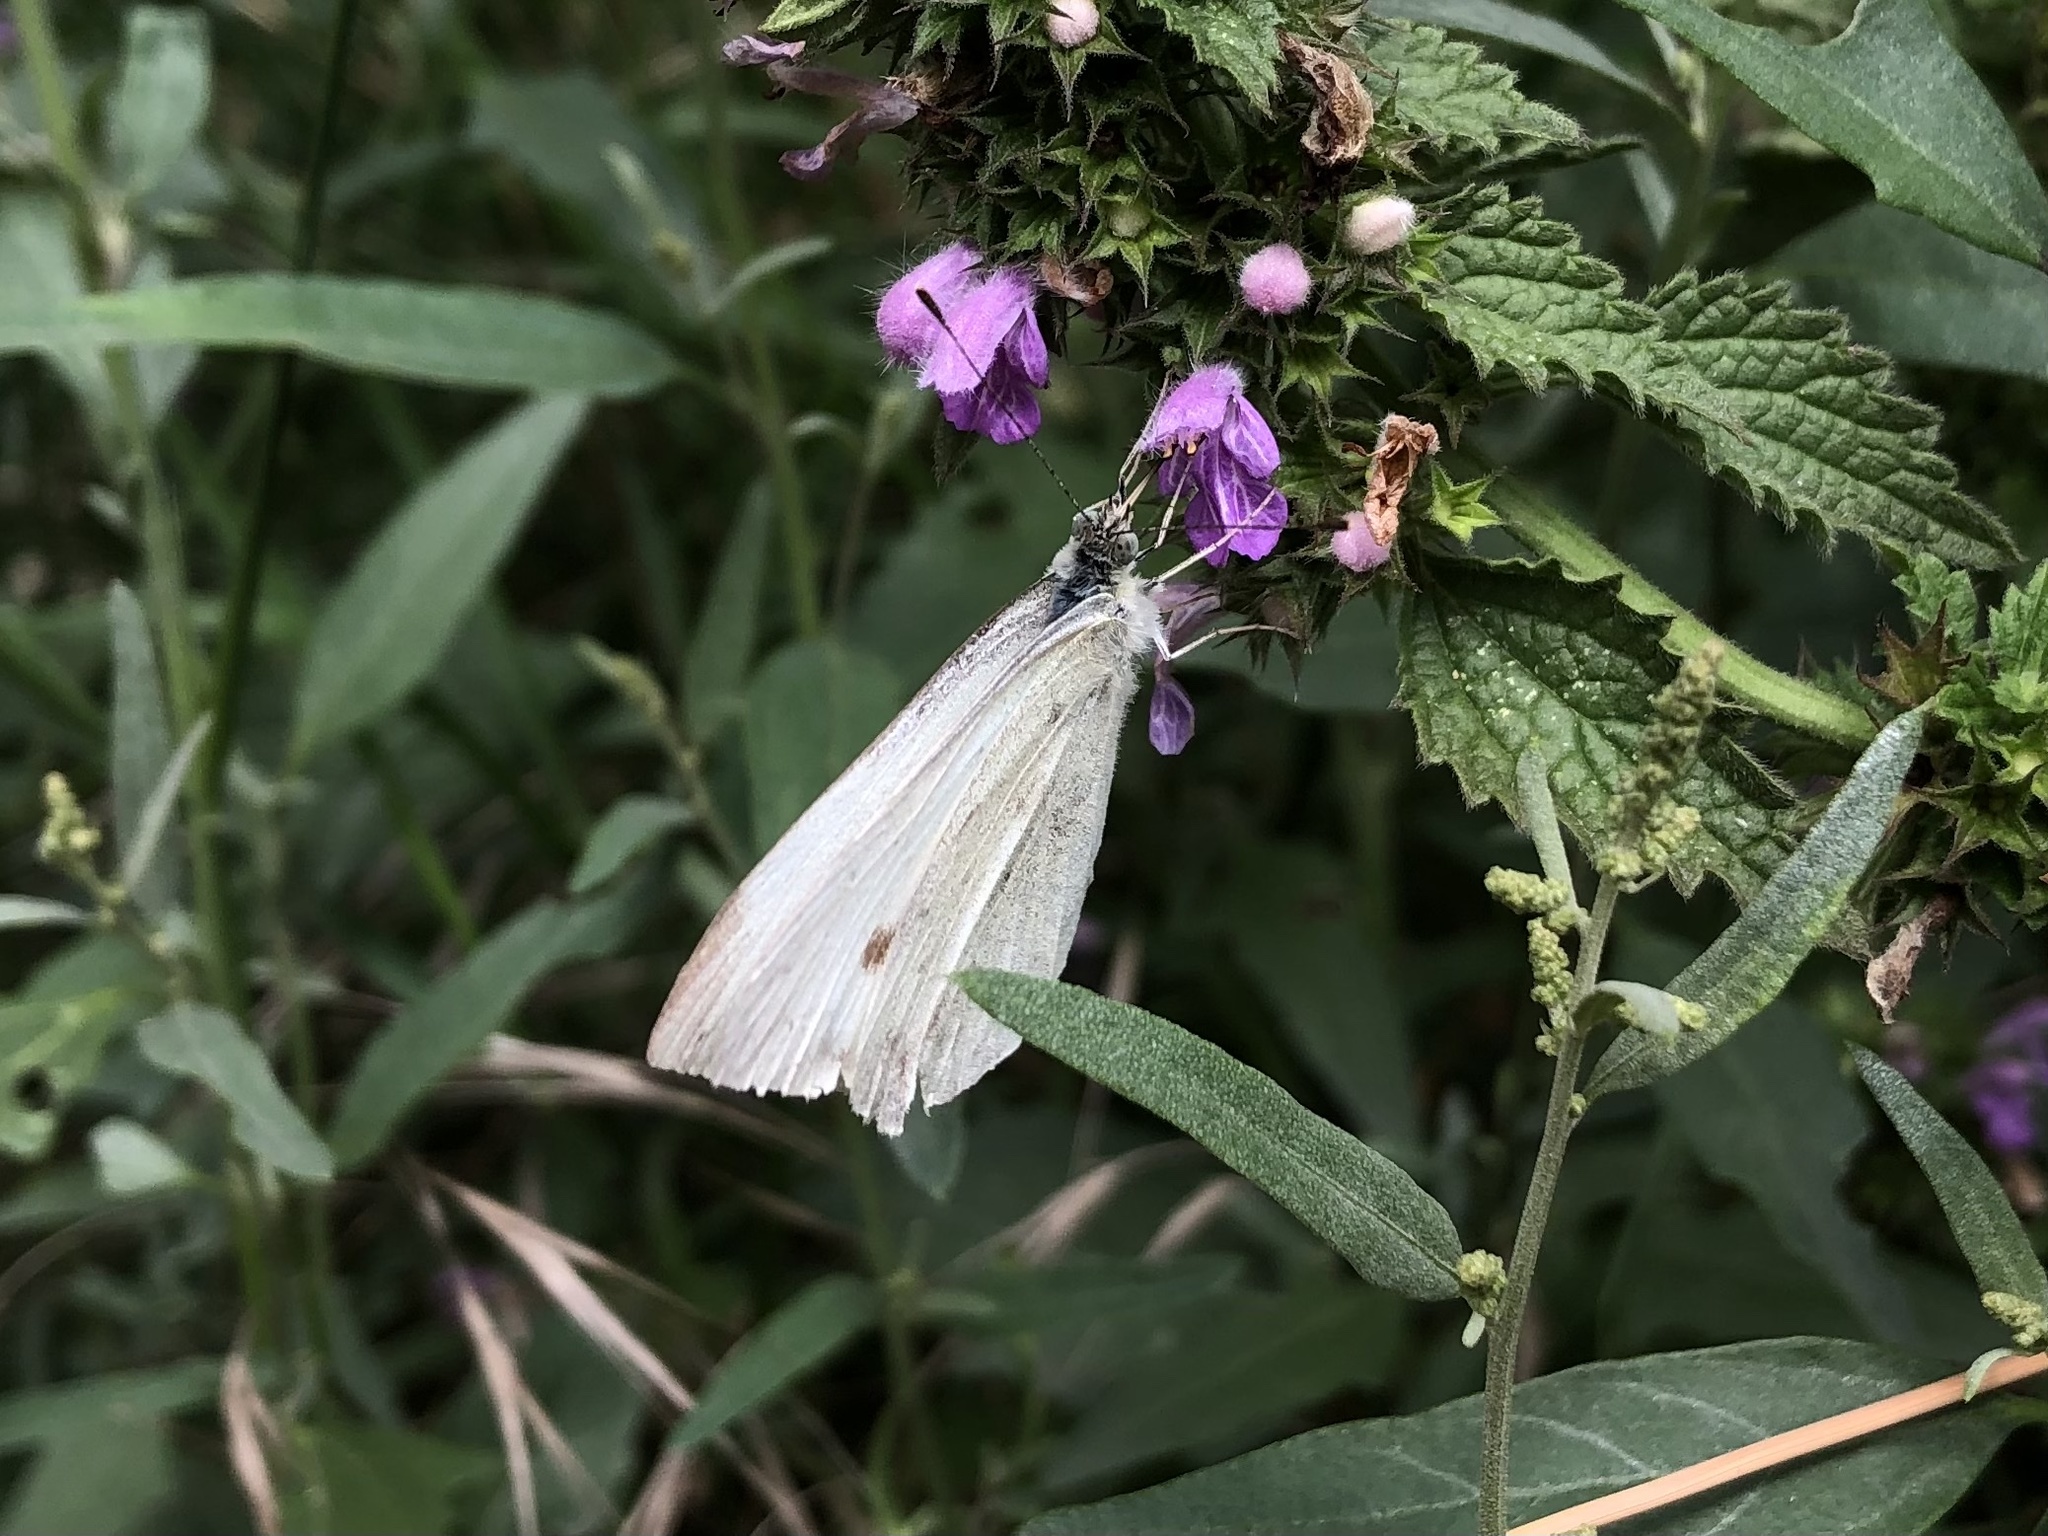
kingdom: Animalia
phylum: Arthropoda
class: Insecta
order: Lepidoptera
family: Pieridae
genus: Pieris
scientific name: Pieris rapae
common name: Small white
